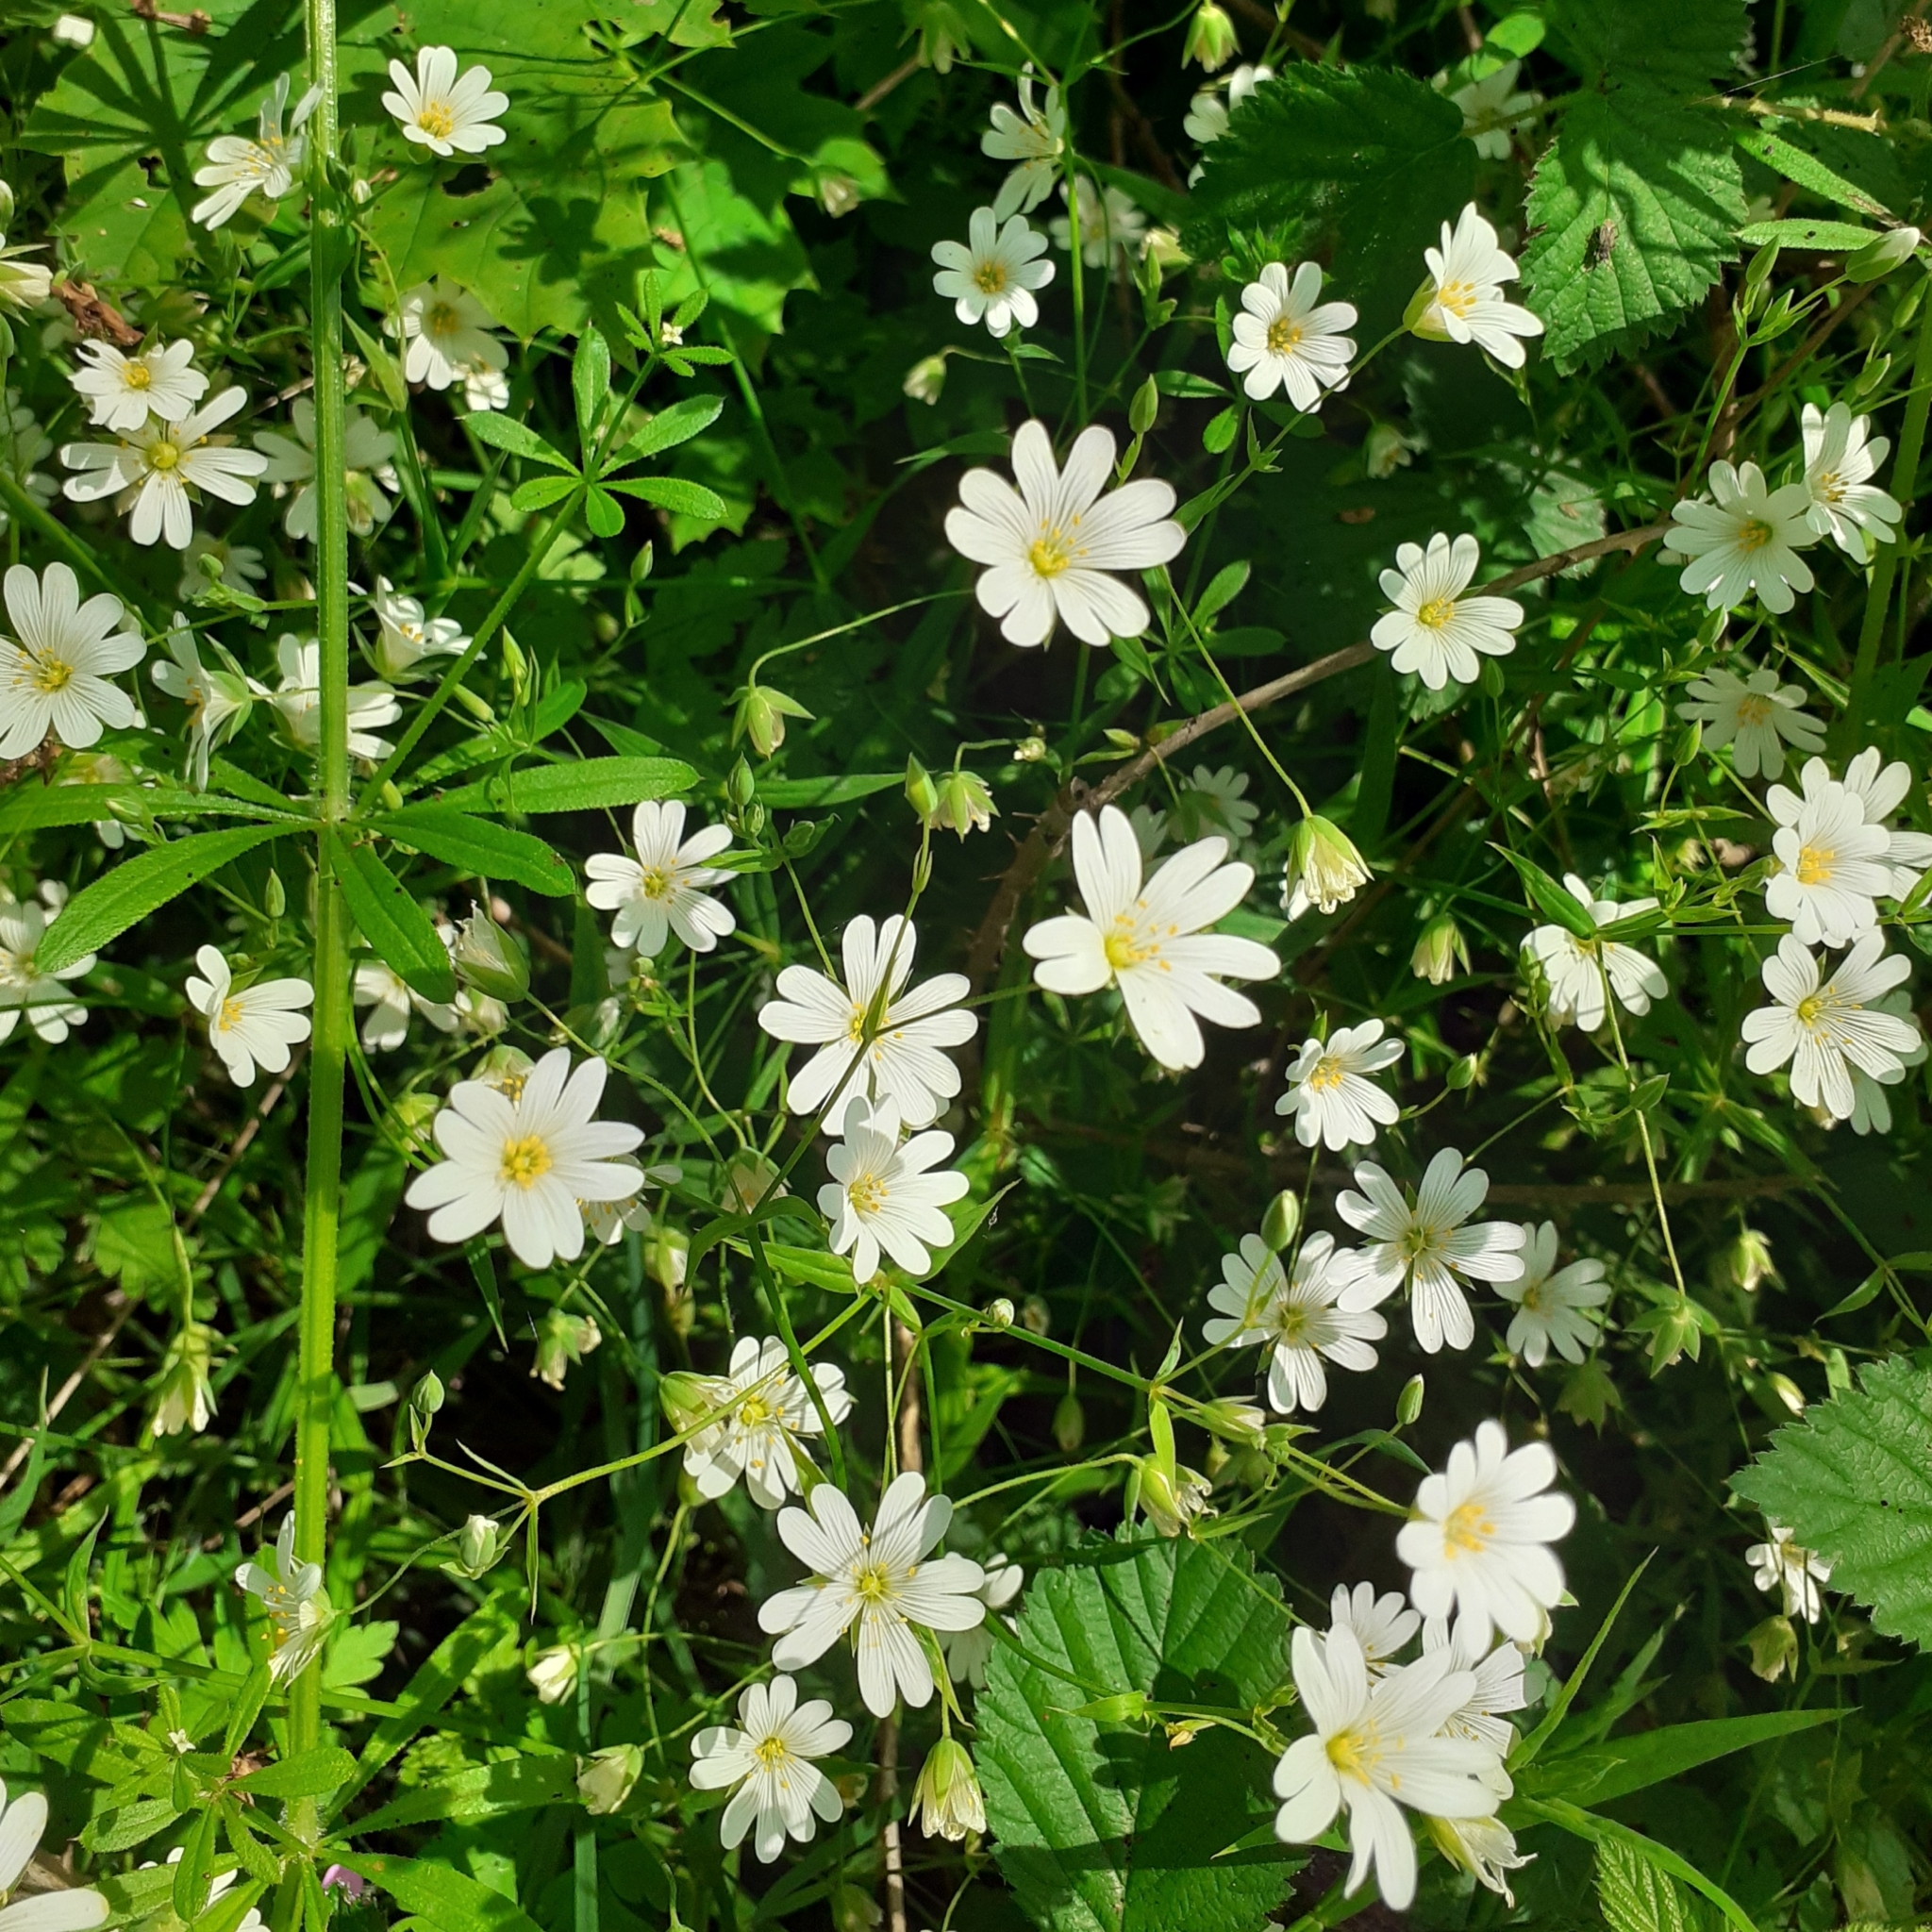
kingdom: Plantae
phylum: Tracheophyta
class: Magnoliopsida
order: Caryophyllales
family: Caryophyllaceae
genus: Rabelera
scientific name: Rabelera holostea
